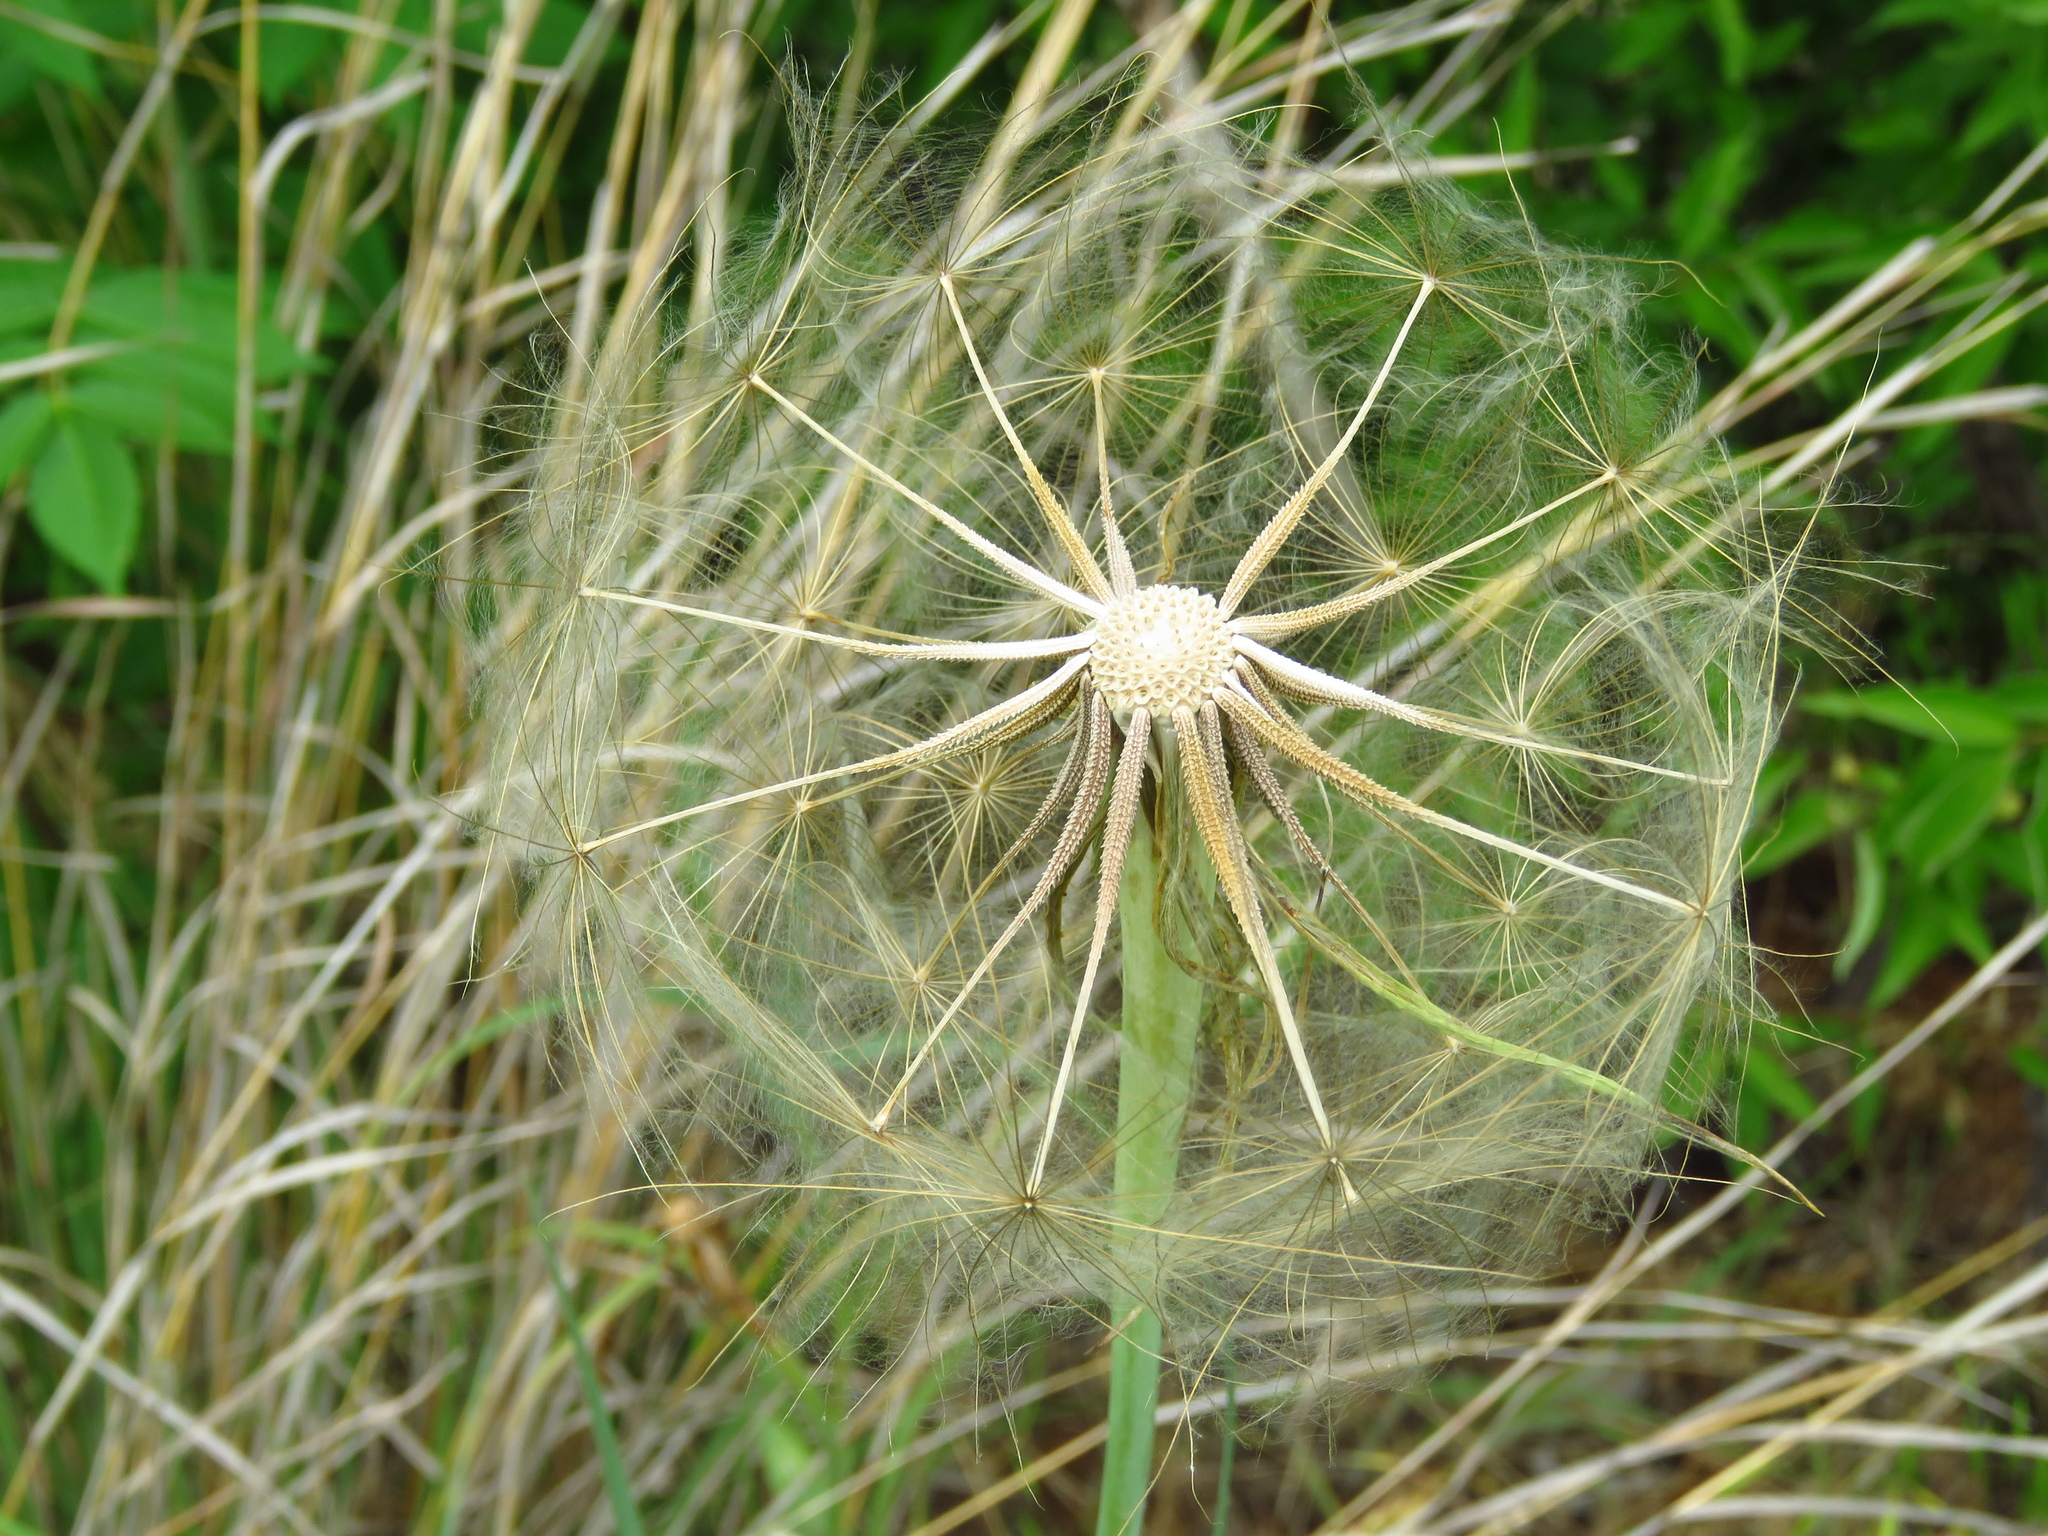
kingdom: Plantae
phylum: Tracheophyta
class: Magnoliopsida
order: Asterales
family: Asteraceae
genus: Tragopogon
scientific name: Tragopogon dubius
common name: Yellow salsify
